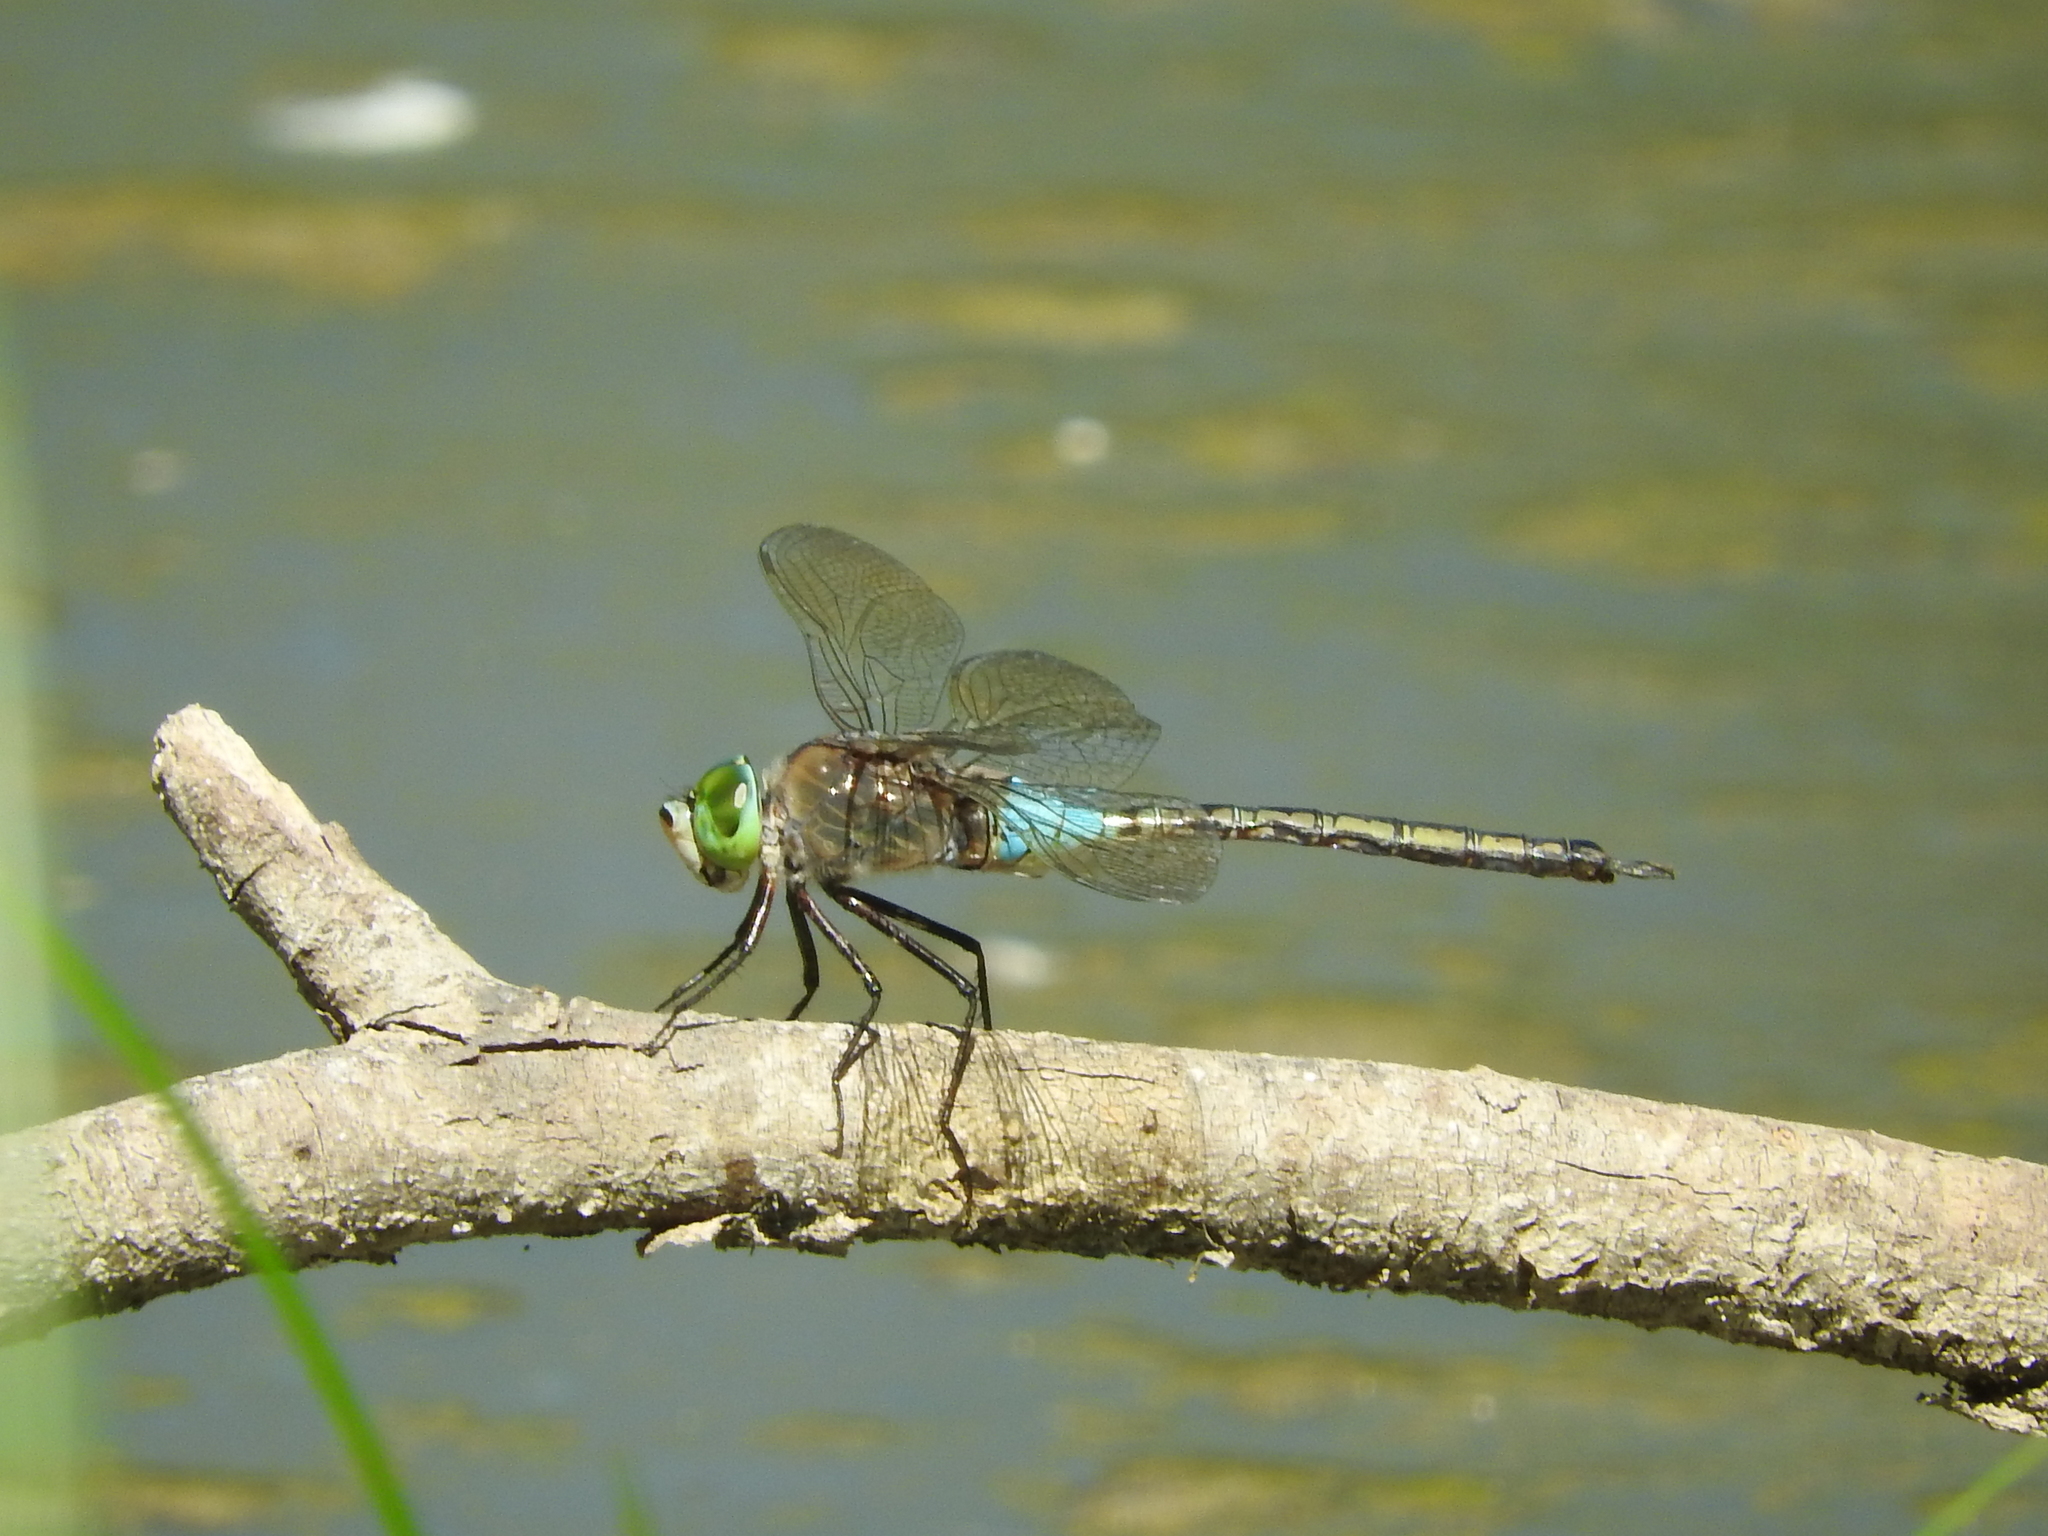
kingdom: Animalia
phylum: Arthropoda
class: Insecta
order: Odonata
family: Aeshnidae
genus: Anax
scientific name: Anax parthenope
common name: Lesser emperor
